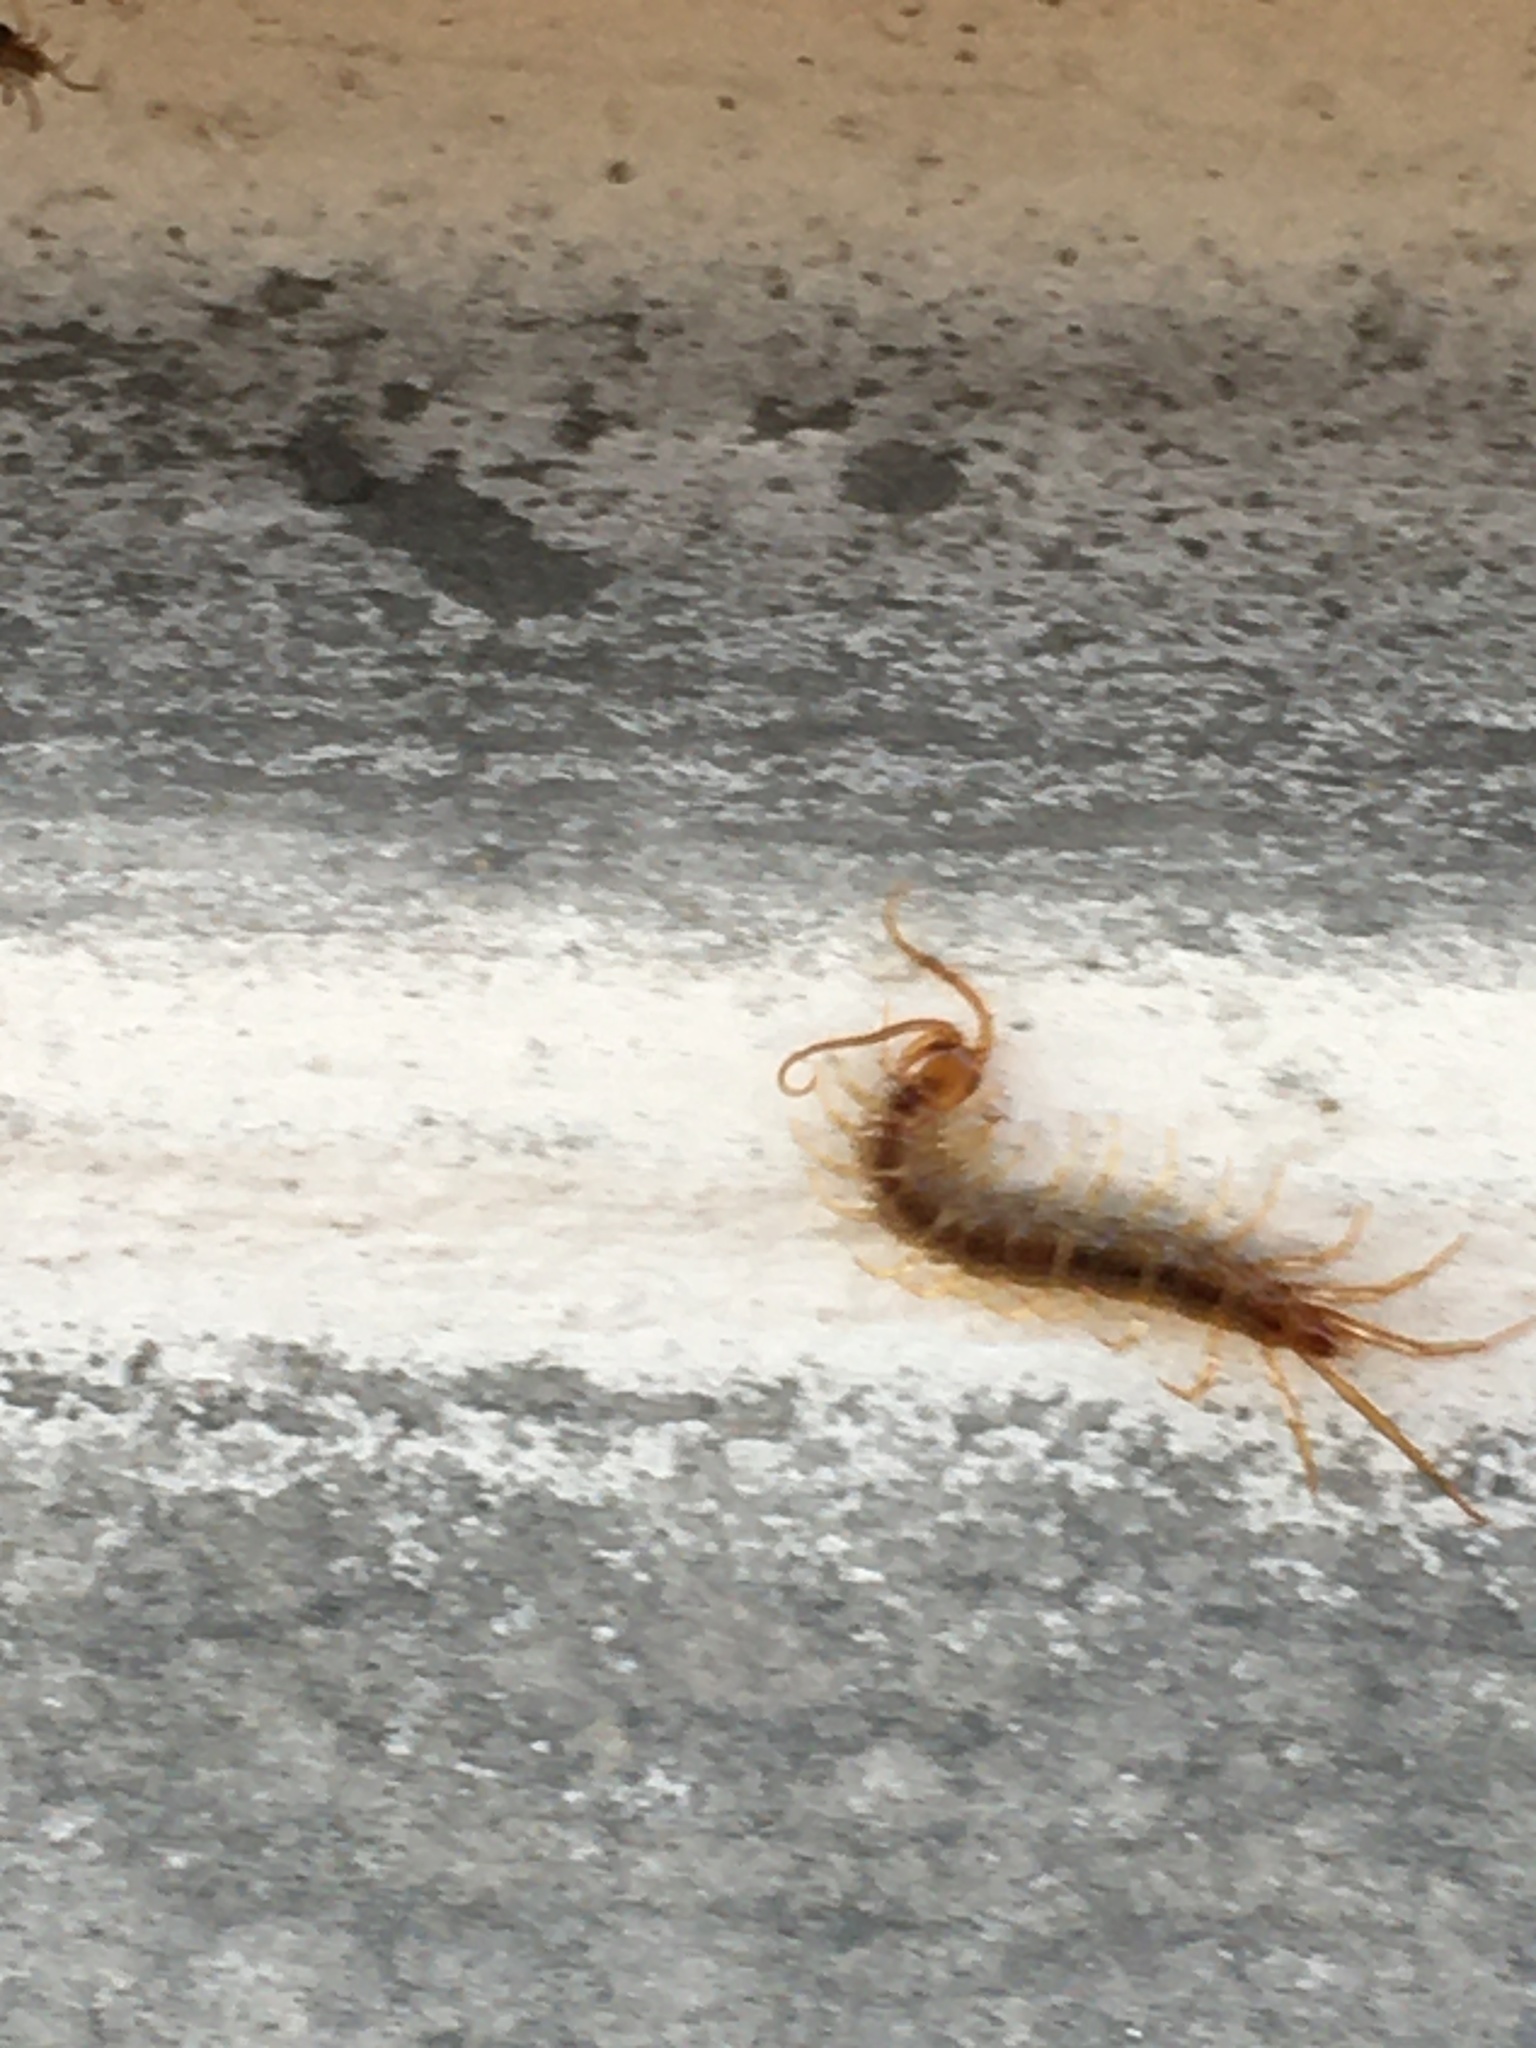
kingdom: Animalia
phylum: Arthropoda
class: Chilopoda
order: Lithobiomorpha
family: Lithobiidae
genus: Lithobius
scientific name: Lithobius forficatus
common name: Centipede
